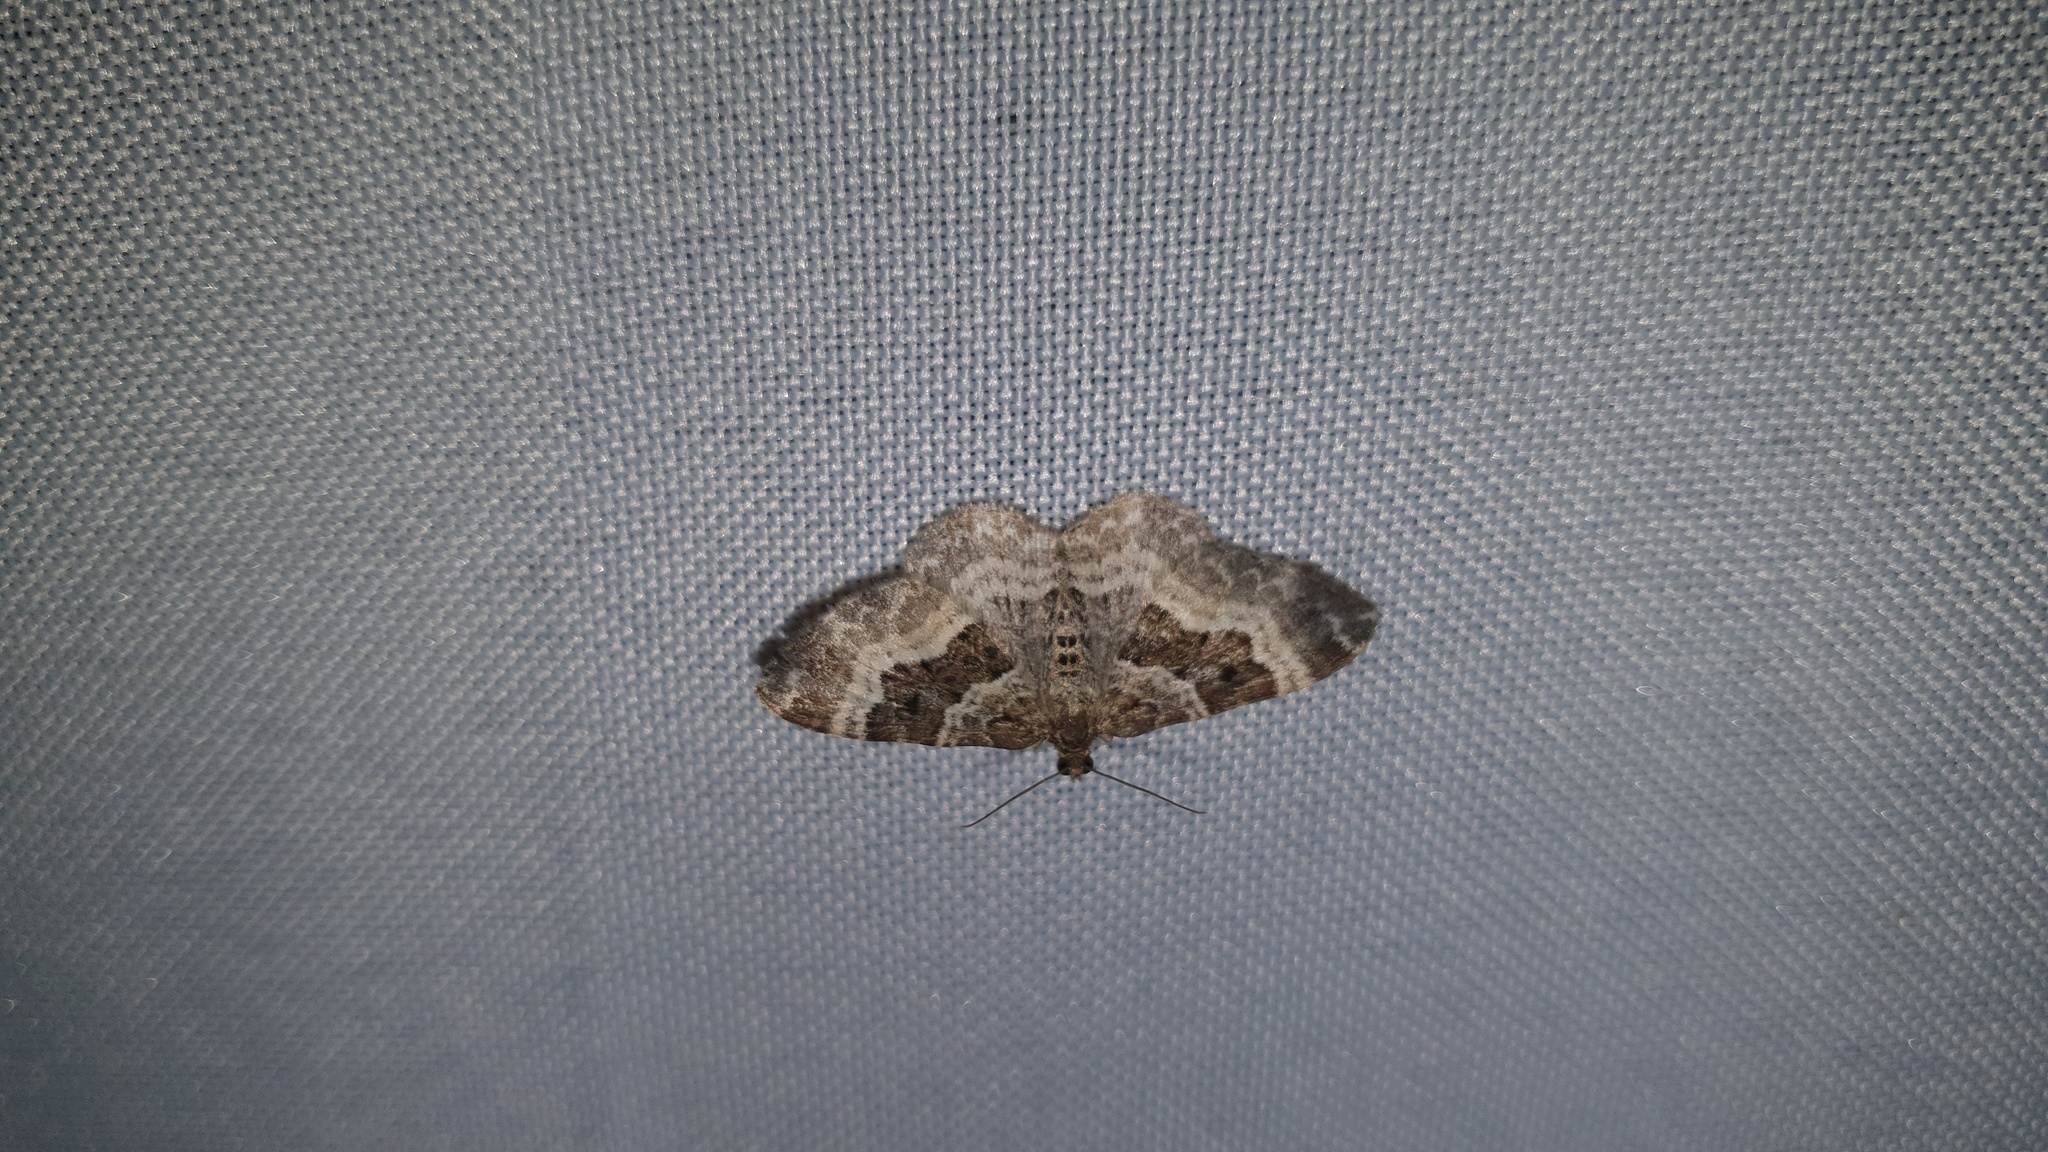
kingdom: Animalia
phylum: Arthropoda
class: Insecta
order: Lepidoptera
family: Geometridae
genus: Epirrhoe
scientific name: Epirrhoe alternata
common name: Common carpet
